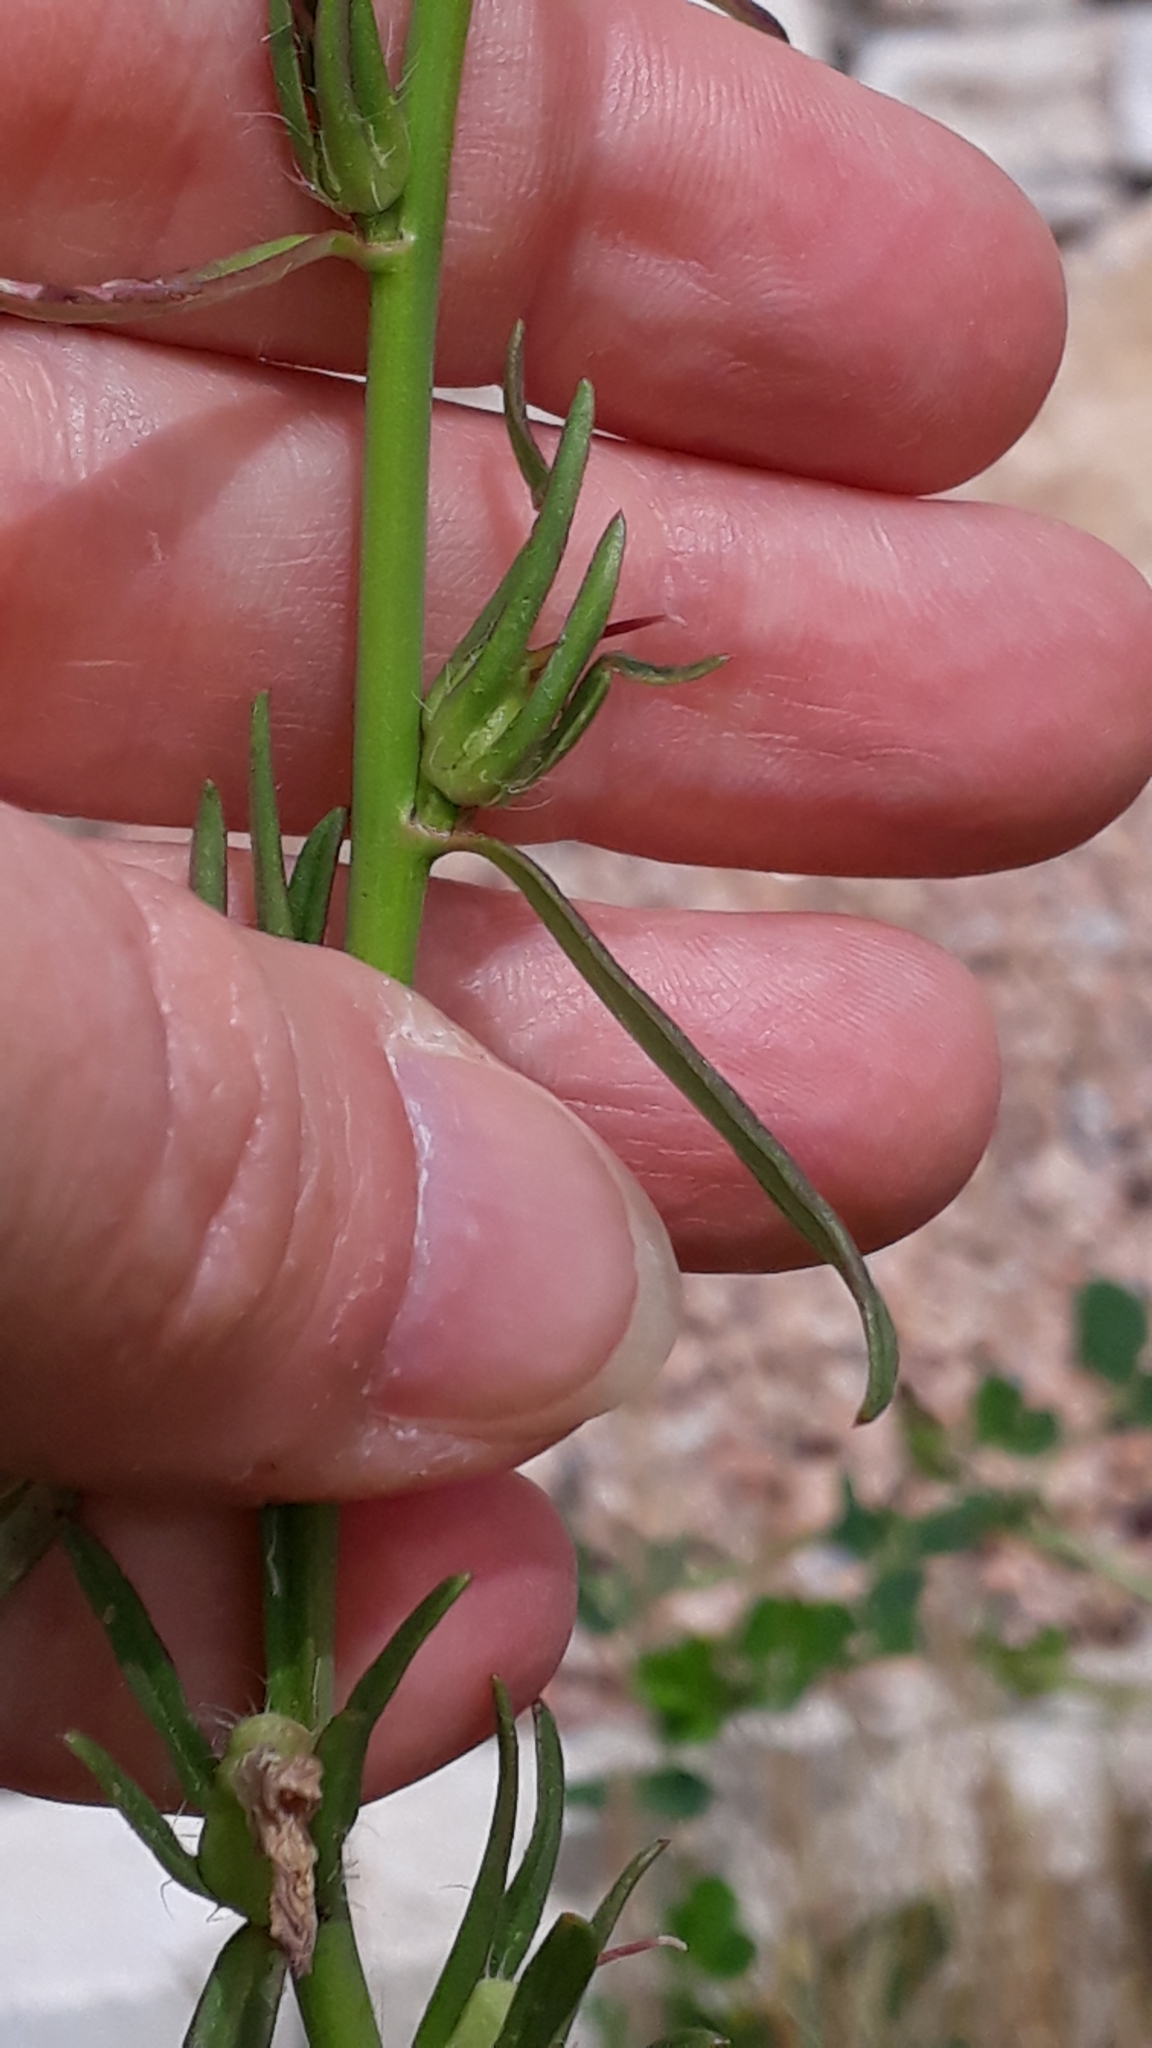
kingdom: Plantae
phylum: Tracheophyta
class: Magnoliopsida
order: Lamiales
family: Plantaginaceae
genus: Misopates
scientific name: Misopates orontium
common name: Weasel's-snout
